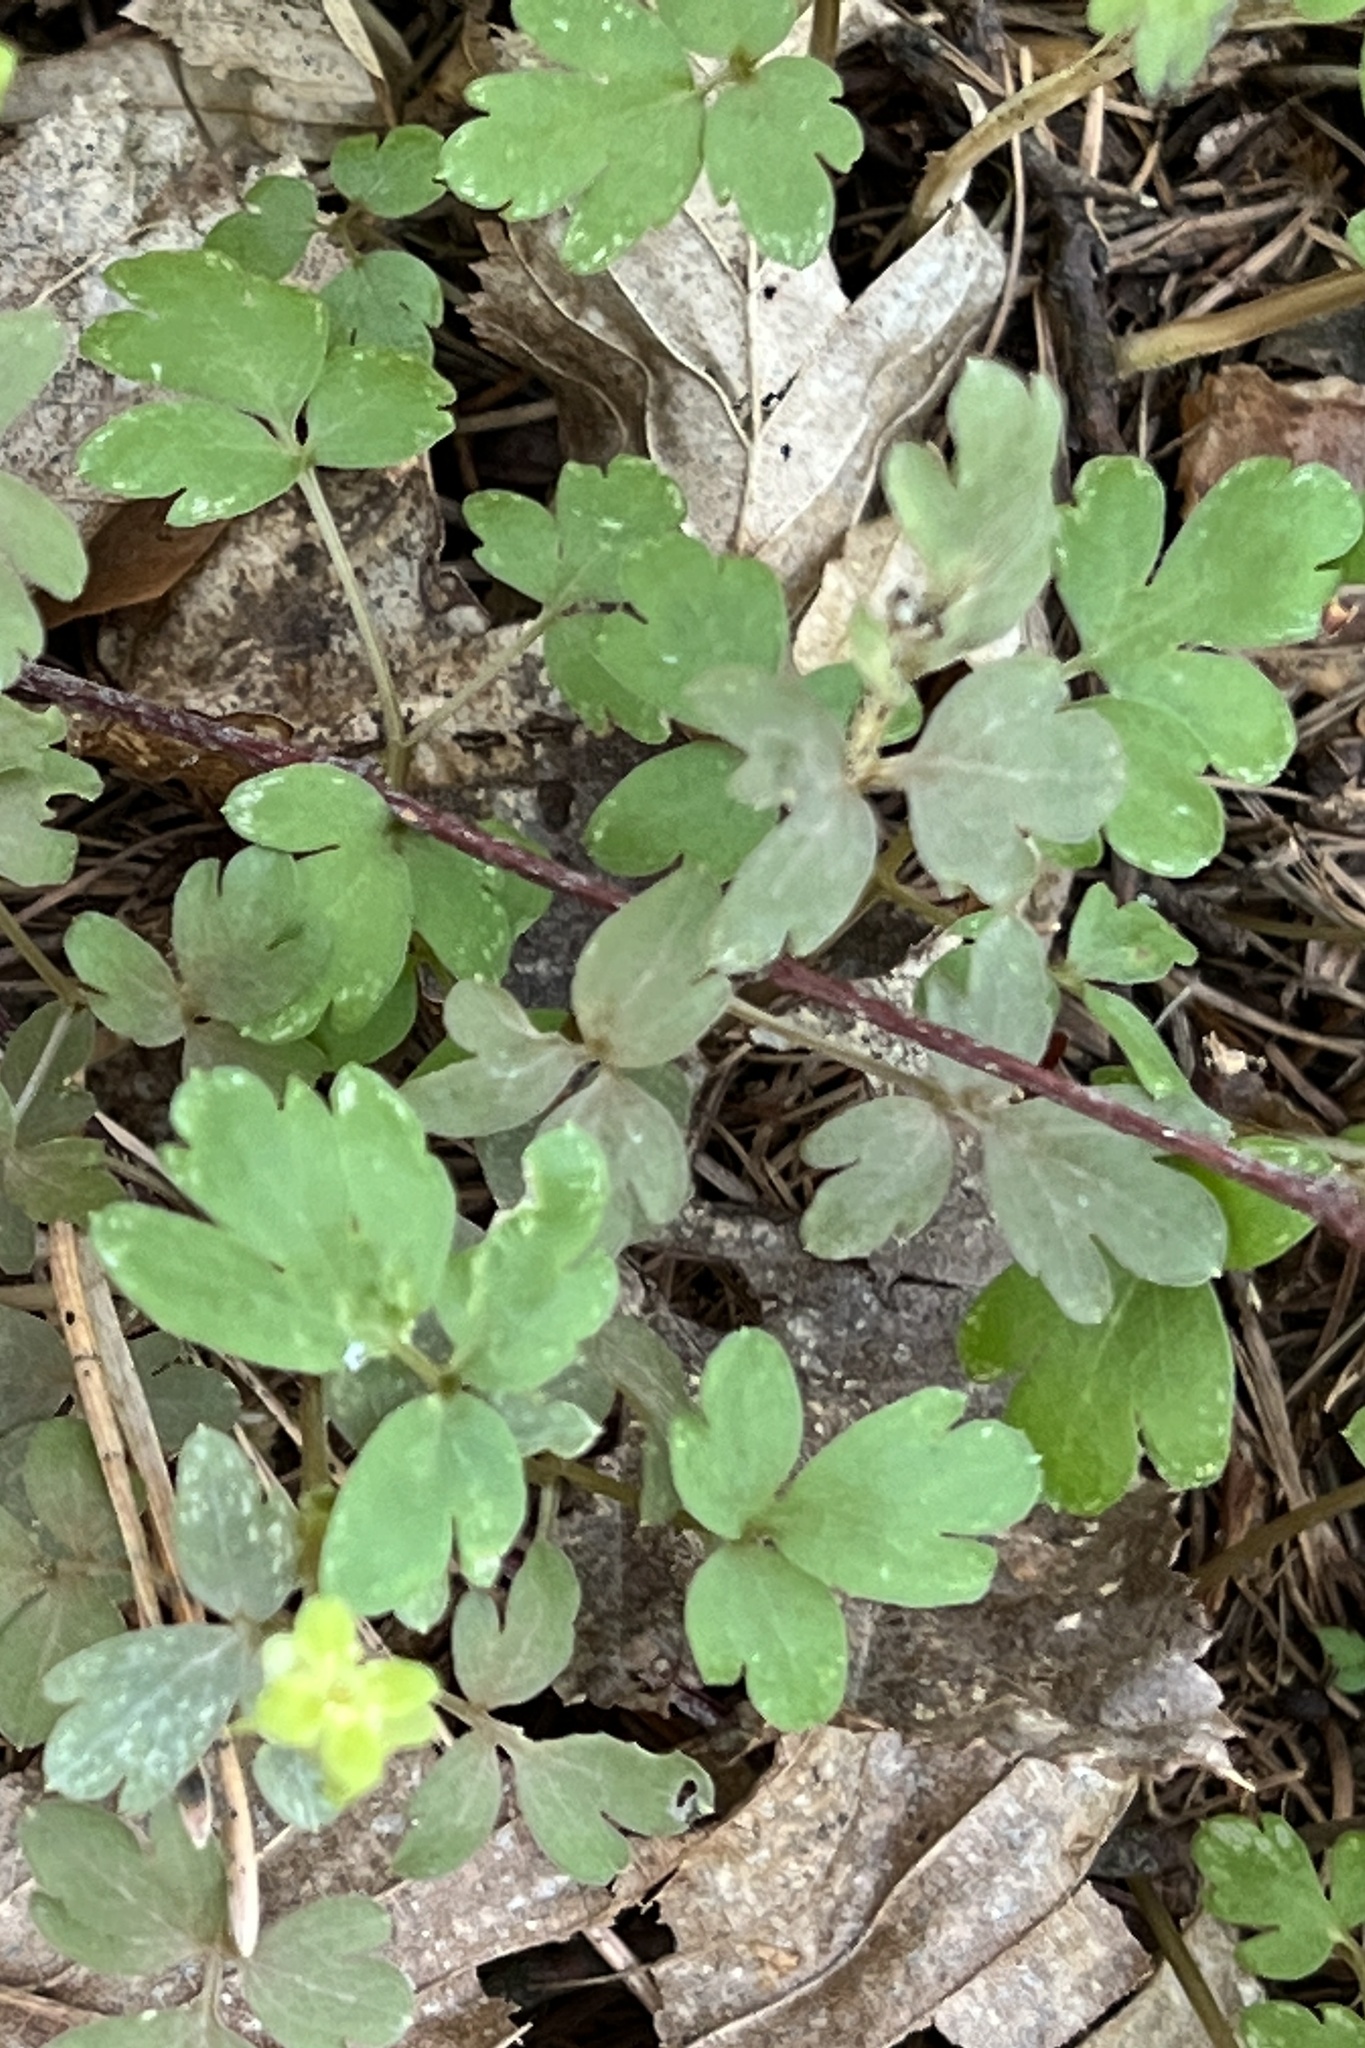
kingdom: Plantae
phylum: Tracheophyta
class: Magnoliopsida
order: Dipsacales
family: Viburnaceae
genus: Adoxa
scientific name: Adoxa moschatellina
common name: Moschatel
